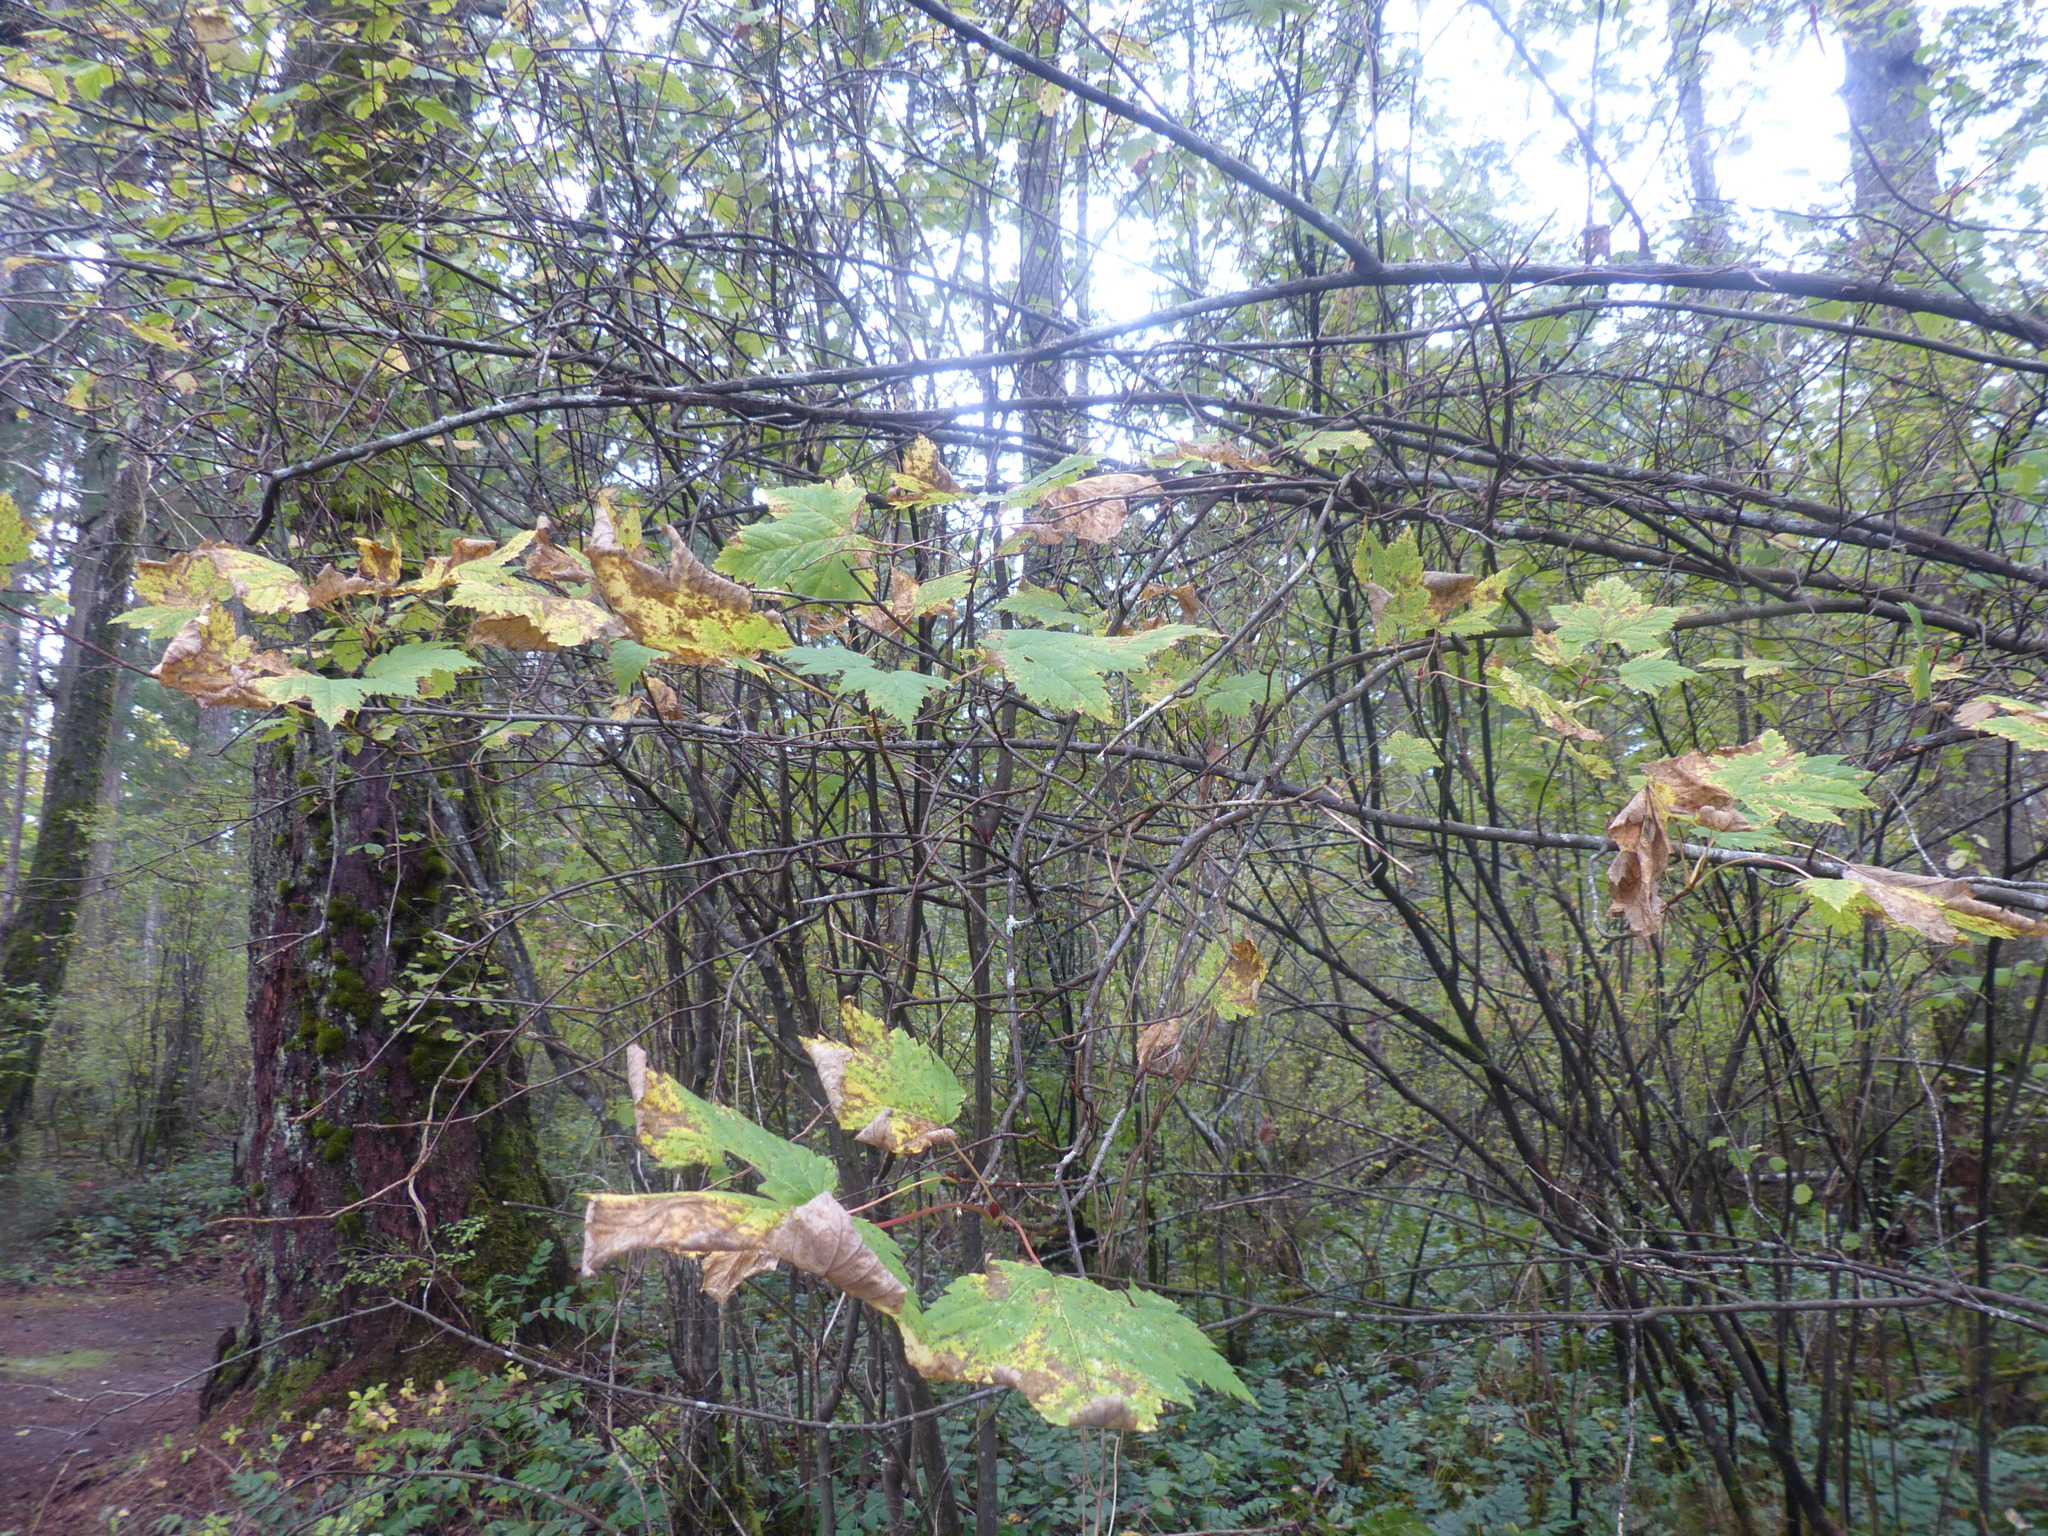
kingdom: Plantae
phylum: Tracheophyta
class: Magnoliopsida
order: Sapindales
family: Sapindaceae
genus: Acer
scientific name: Acer glabrum
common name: Rocky mountain maple
